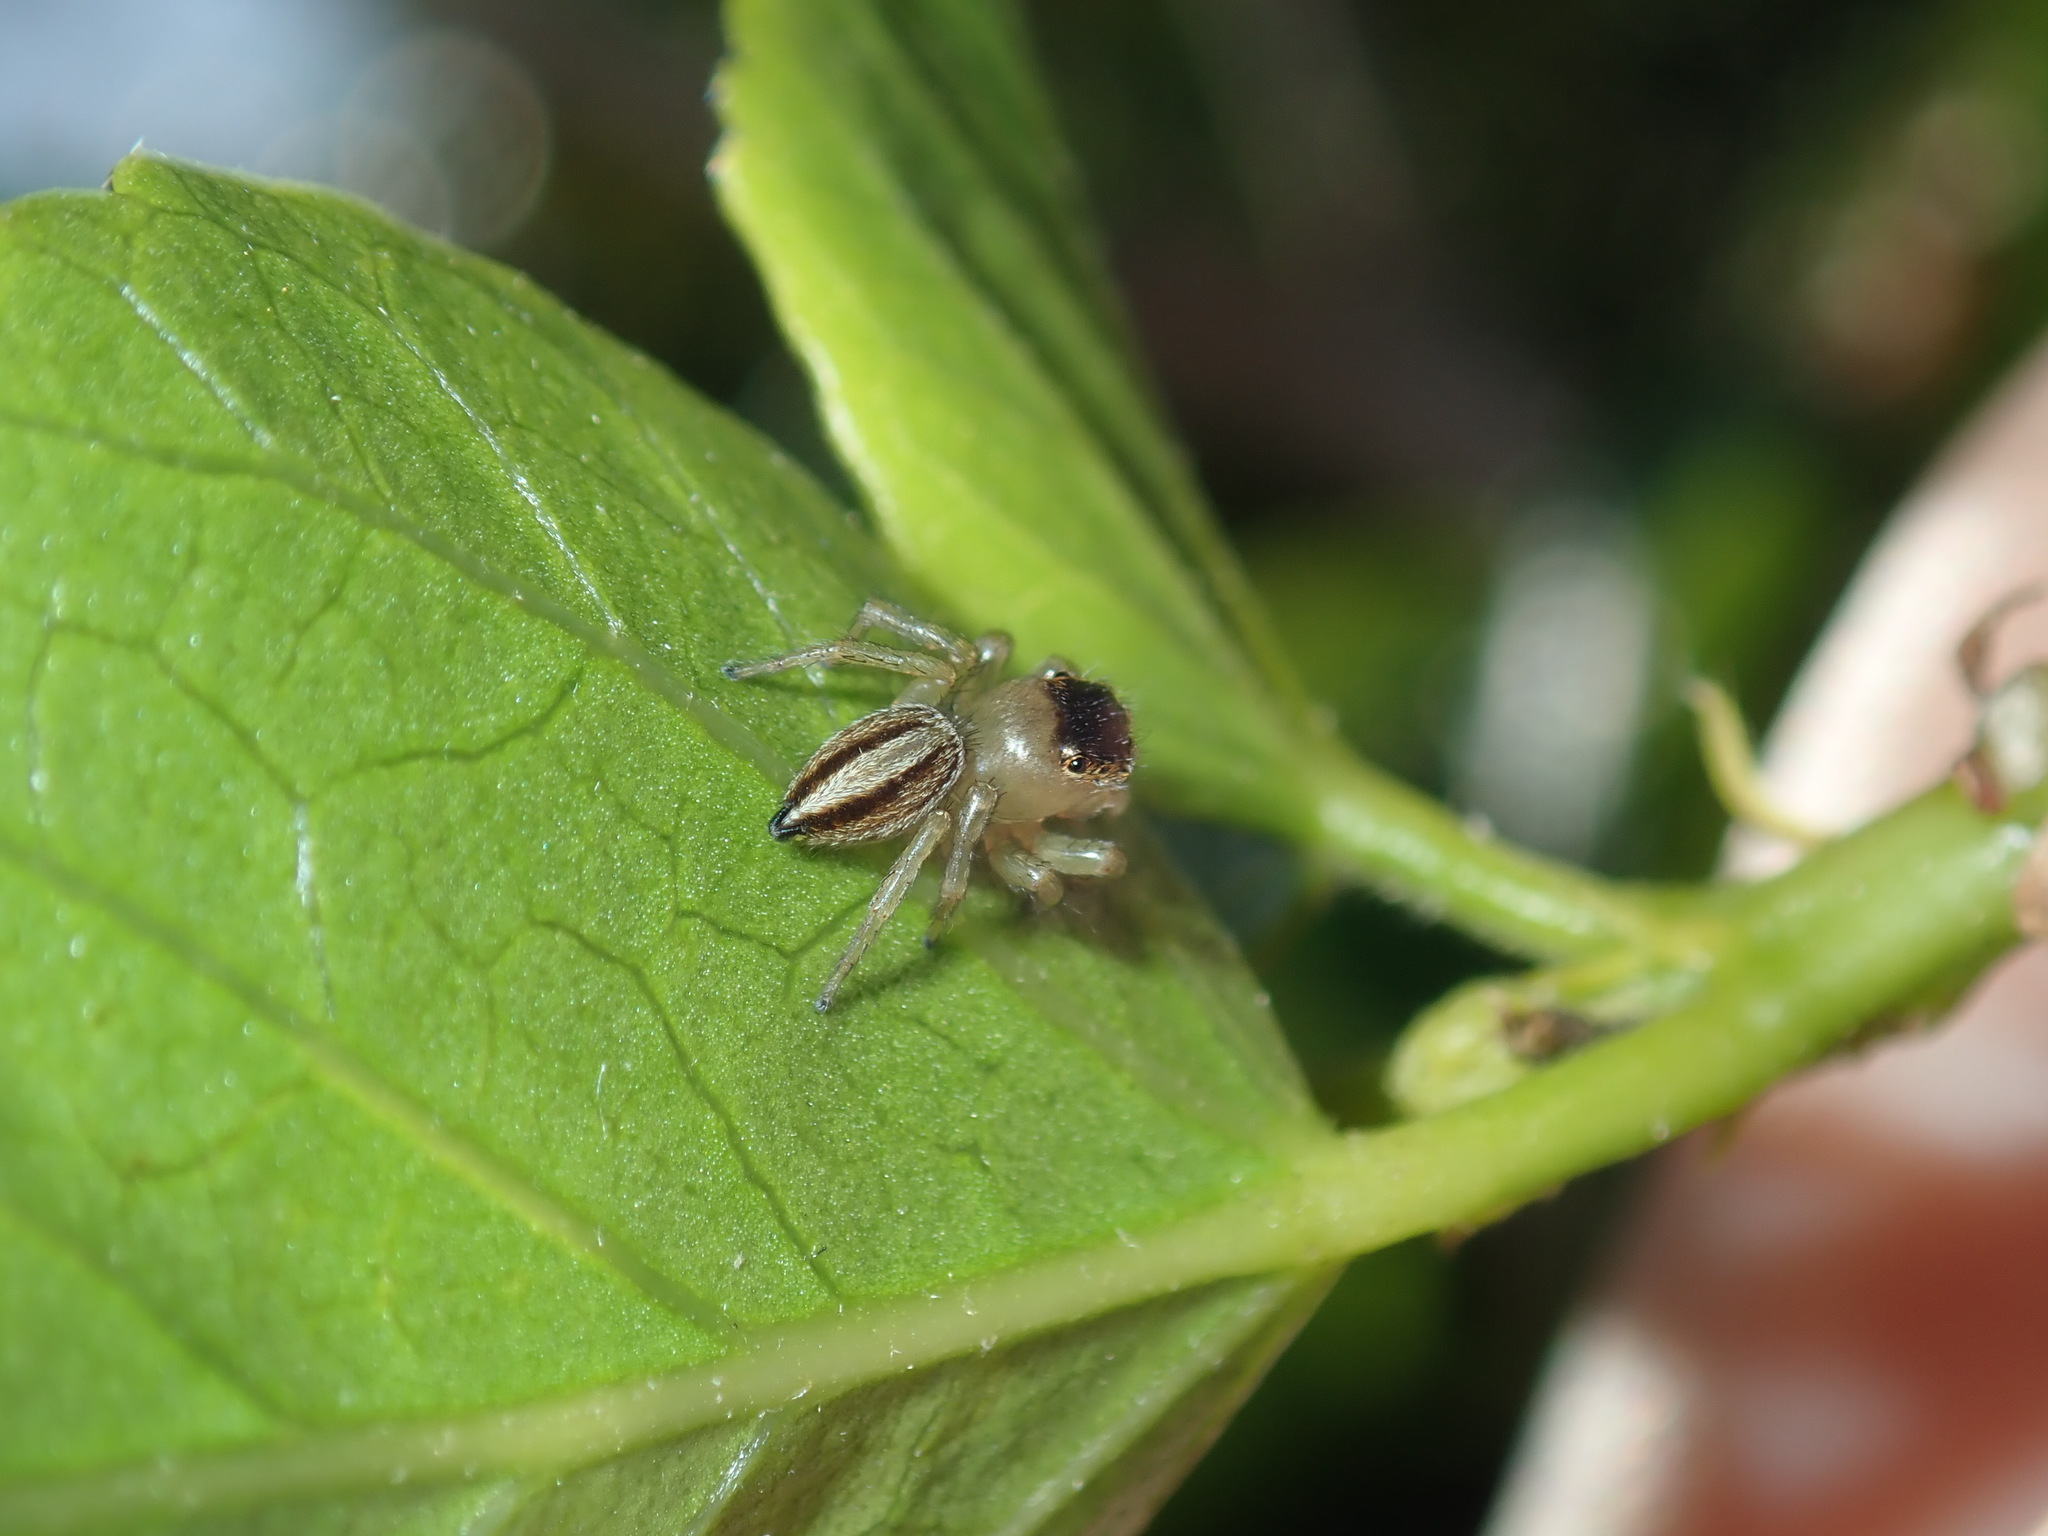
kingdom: Animalia
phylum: Arthropoda
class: Arachnida
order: Araneae
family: Salticidae
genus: Maratus
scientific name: Maratus scutulatus
